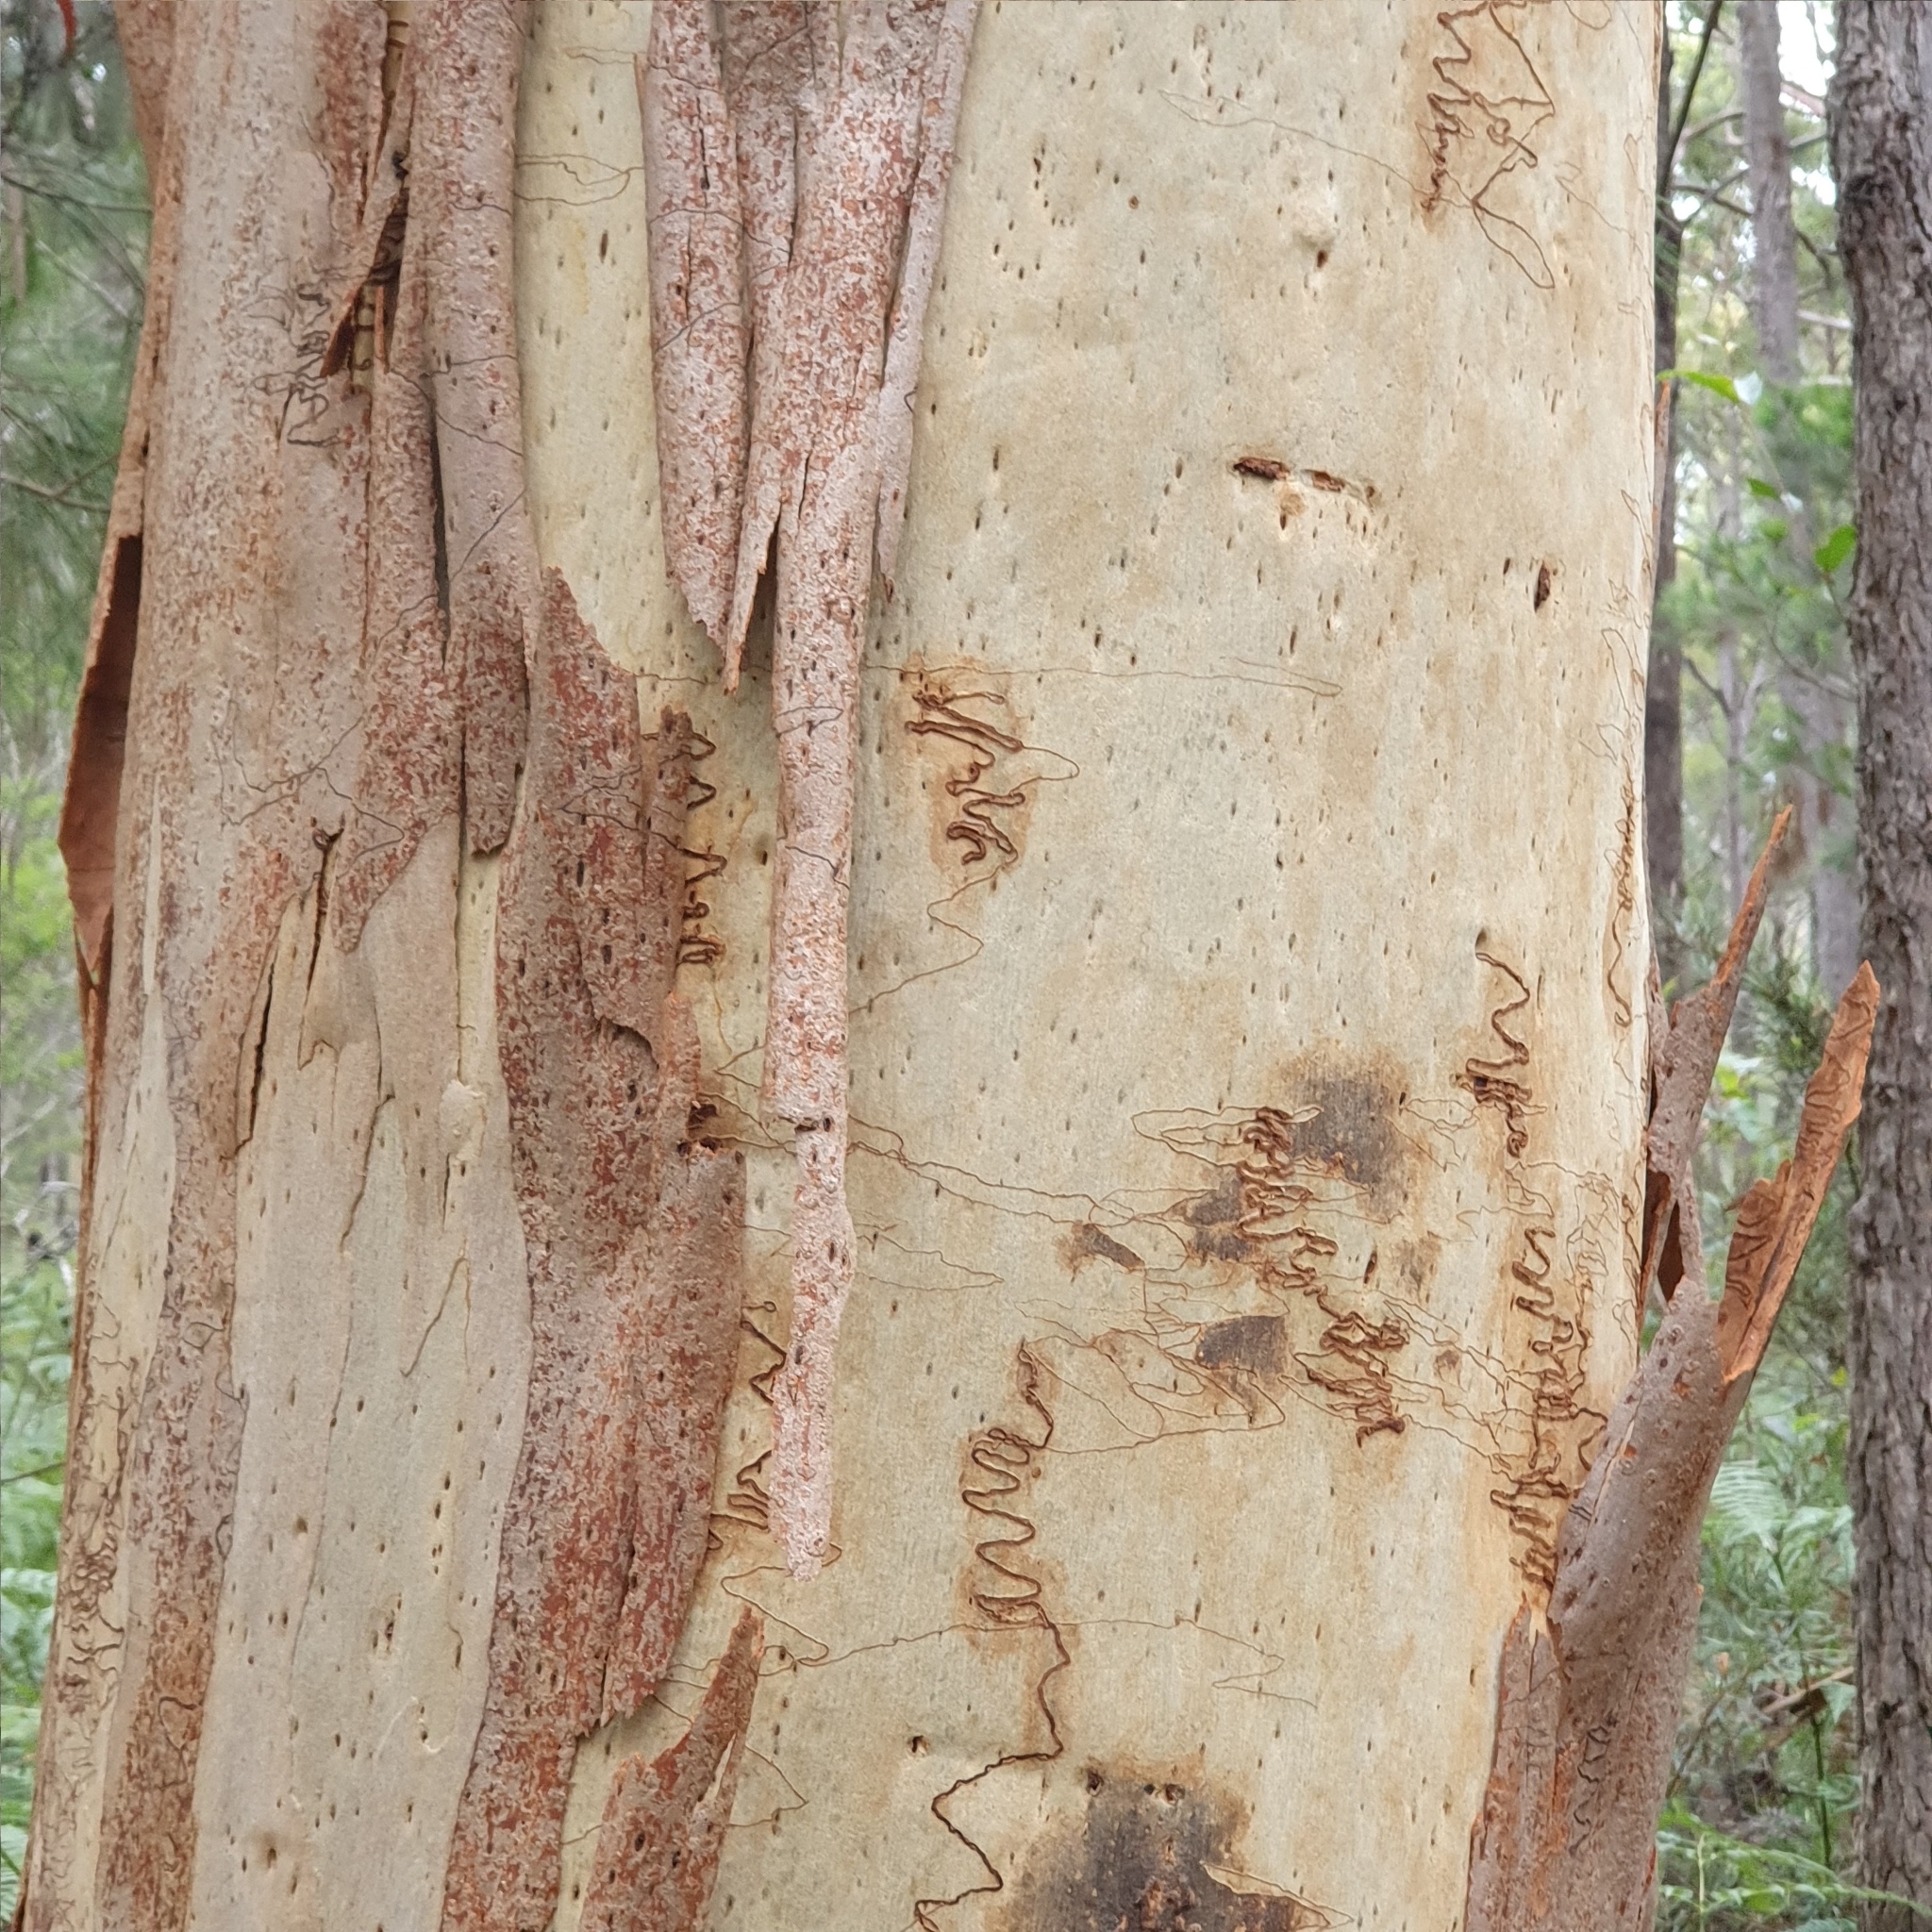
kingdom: Plantae
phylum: Tracheophyta
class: Magnoliopsida
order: Myrtales
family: Myrtaceae
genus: Eucalyptus
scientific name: Eucalyptus racemosa
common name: Scribbly gum
